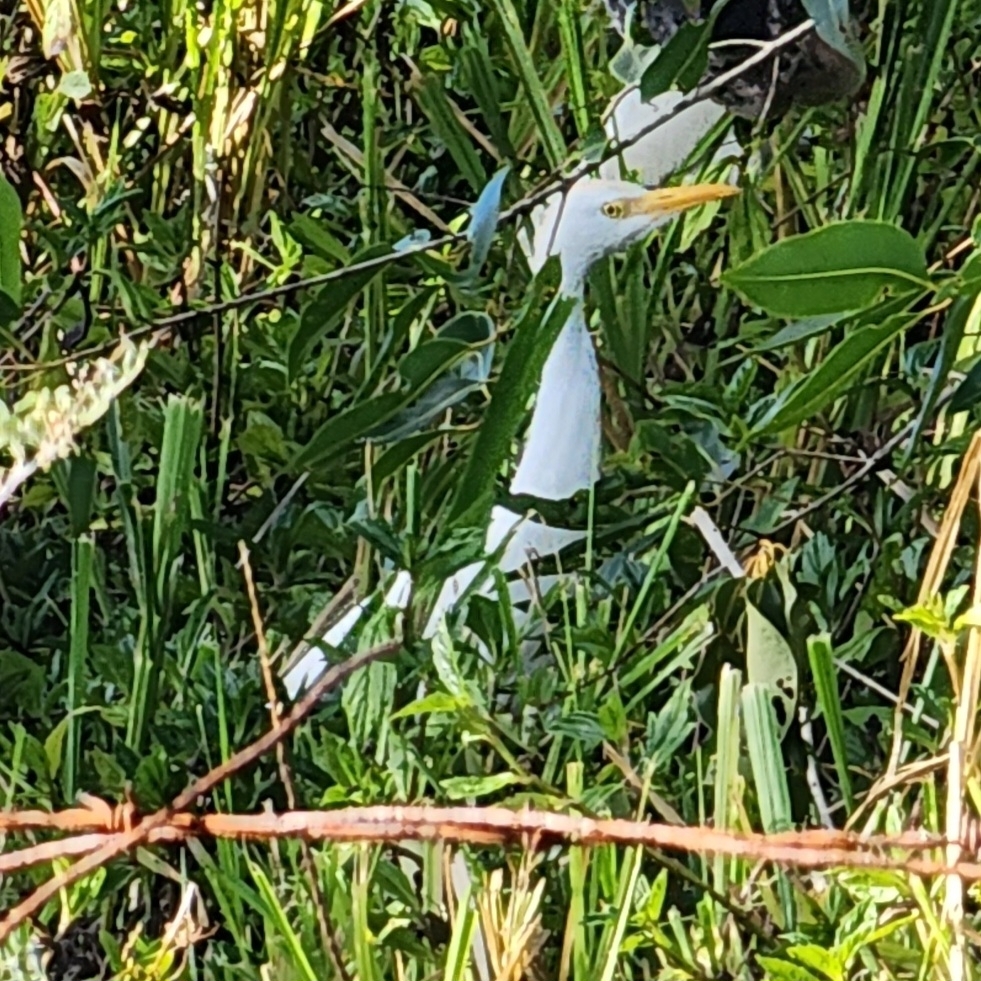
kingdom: Animalia
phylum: Chordata
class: Aves
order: Pelecaniformes
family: Ardeidae
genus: Bubulcus
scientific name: Bubulcus ibis
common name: Cattle egret
